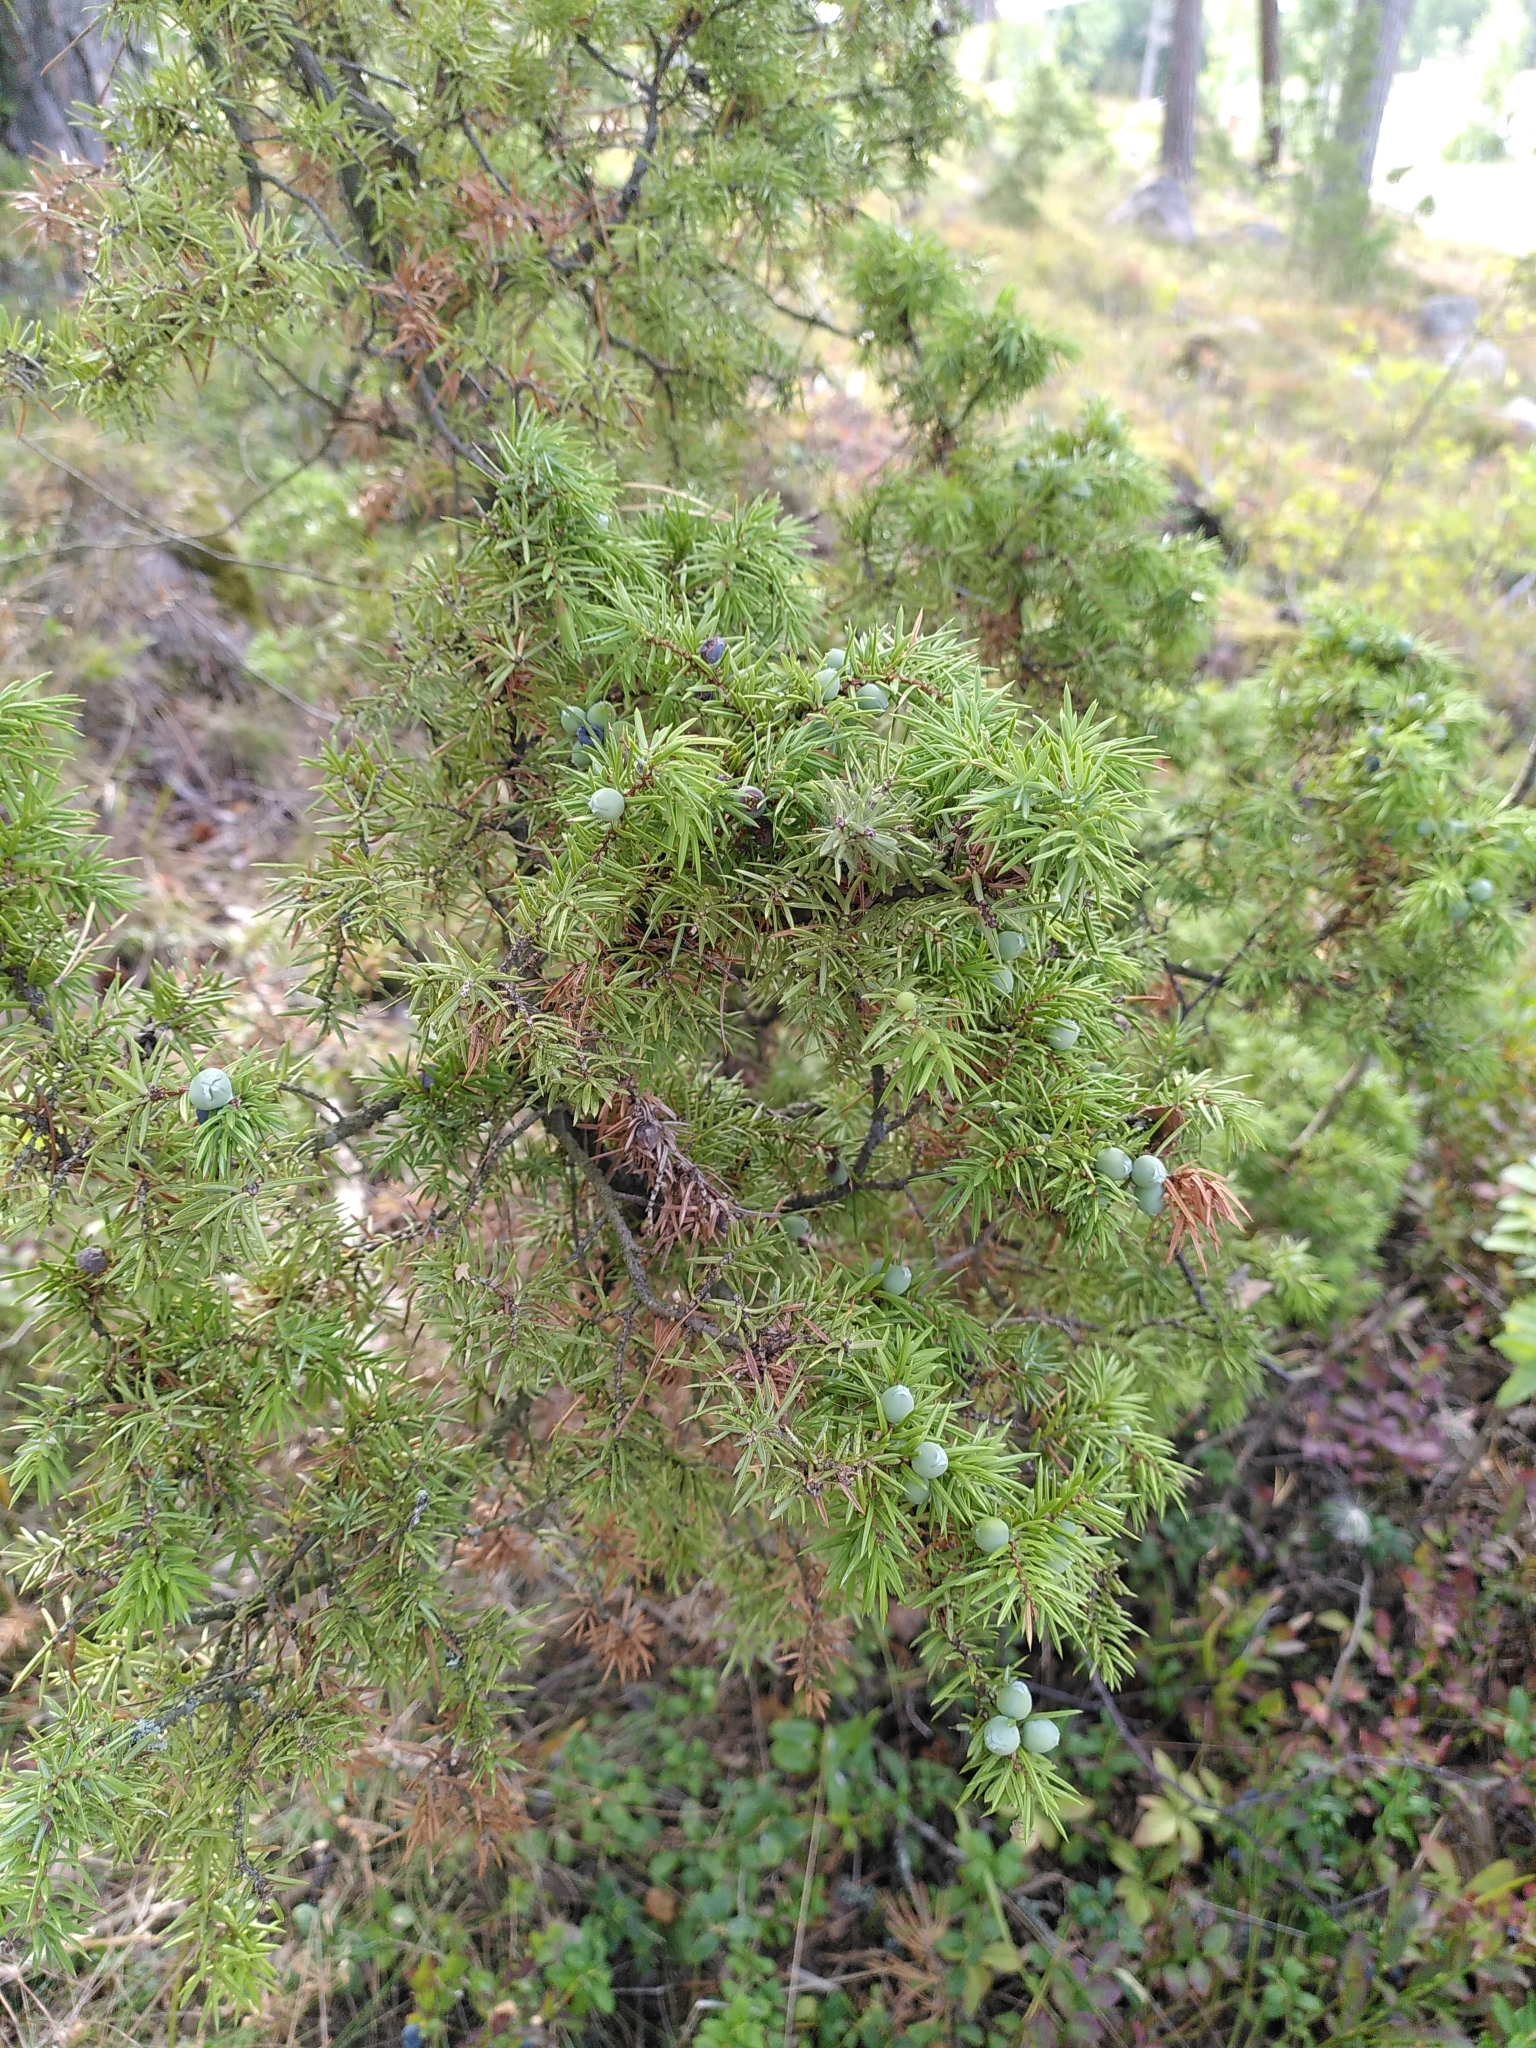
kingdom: Plantae
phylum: Tracheophyta
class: Pinopsida
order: Pinales
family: Cupressaceae
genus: Juniperus
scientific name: Juniperus communis
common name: Common juniper
